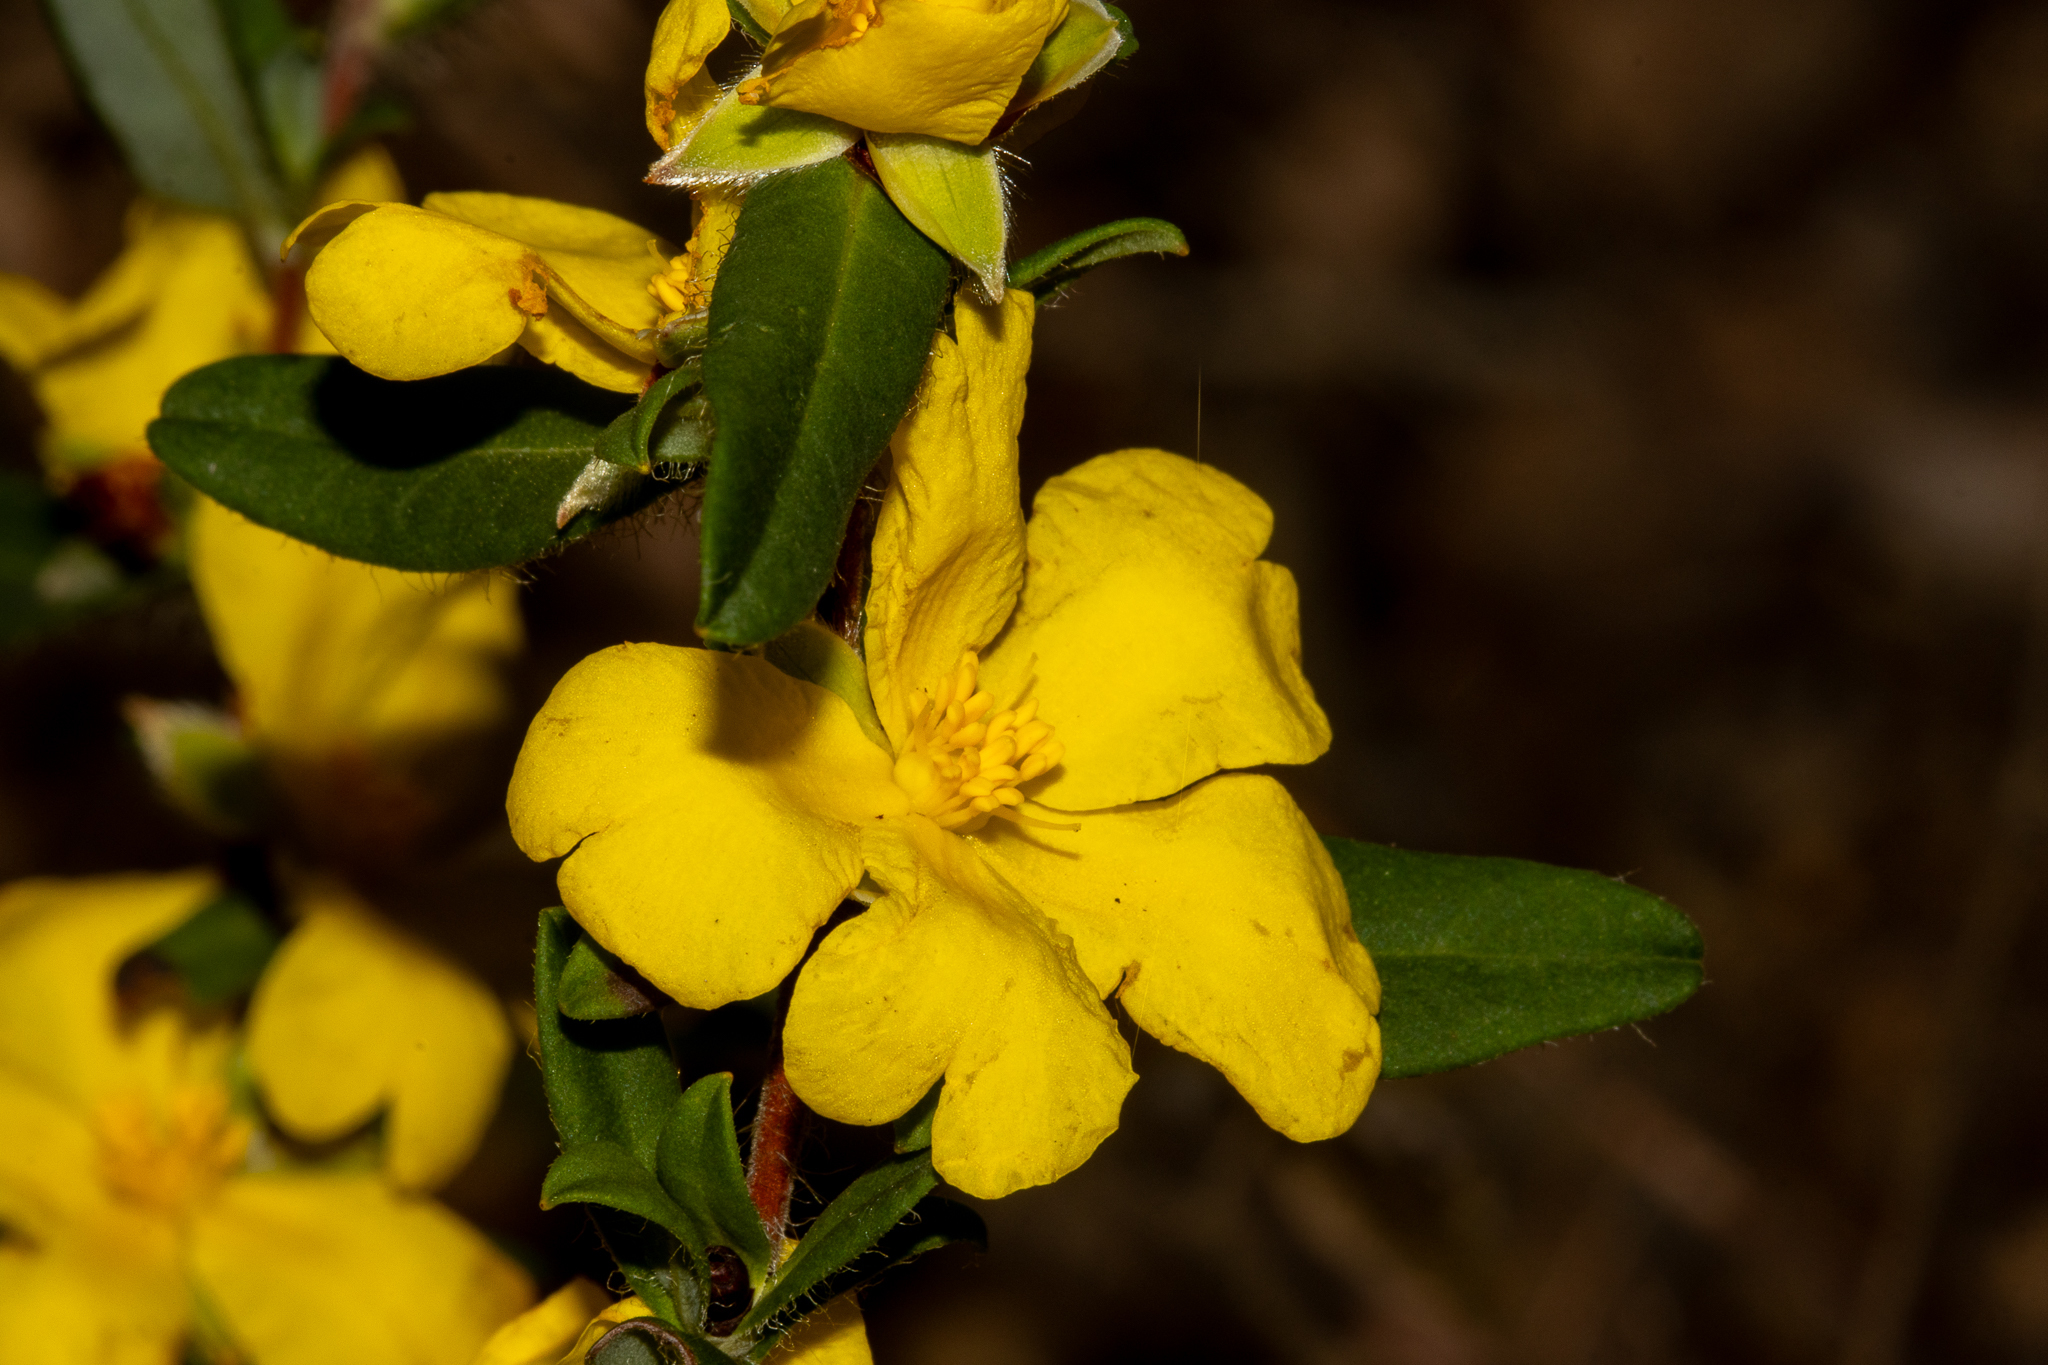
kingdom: Plantae
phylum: Tracheophyta
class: Magnoliopsida
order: Dilleniales
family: Dilleniaceae
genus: Hibbertia
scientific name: Hibbertia semipilosa
